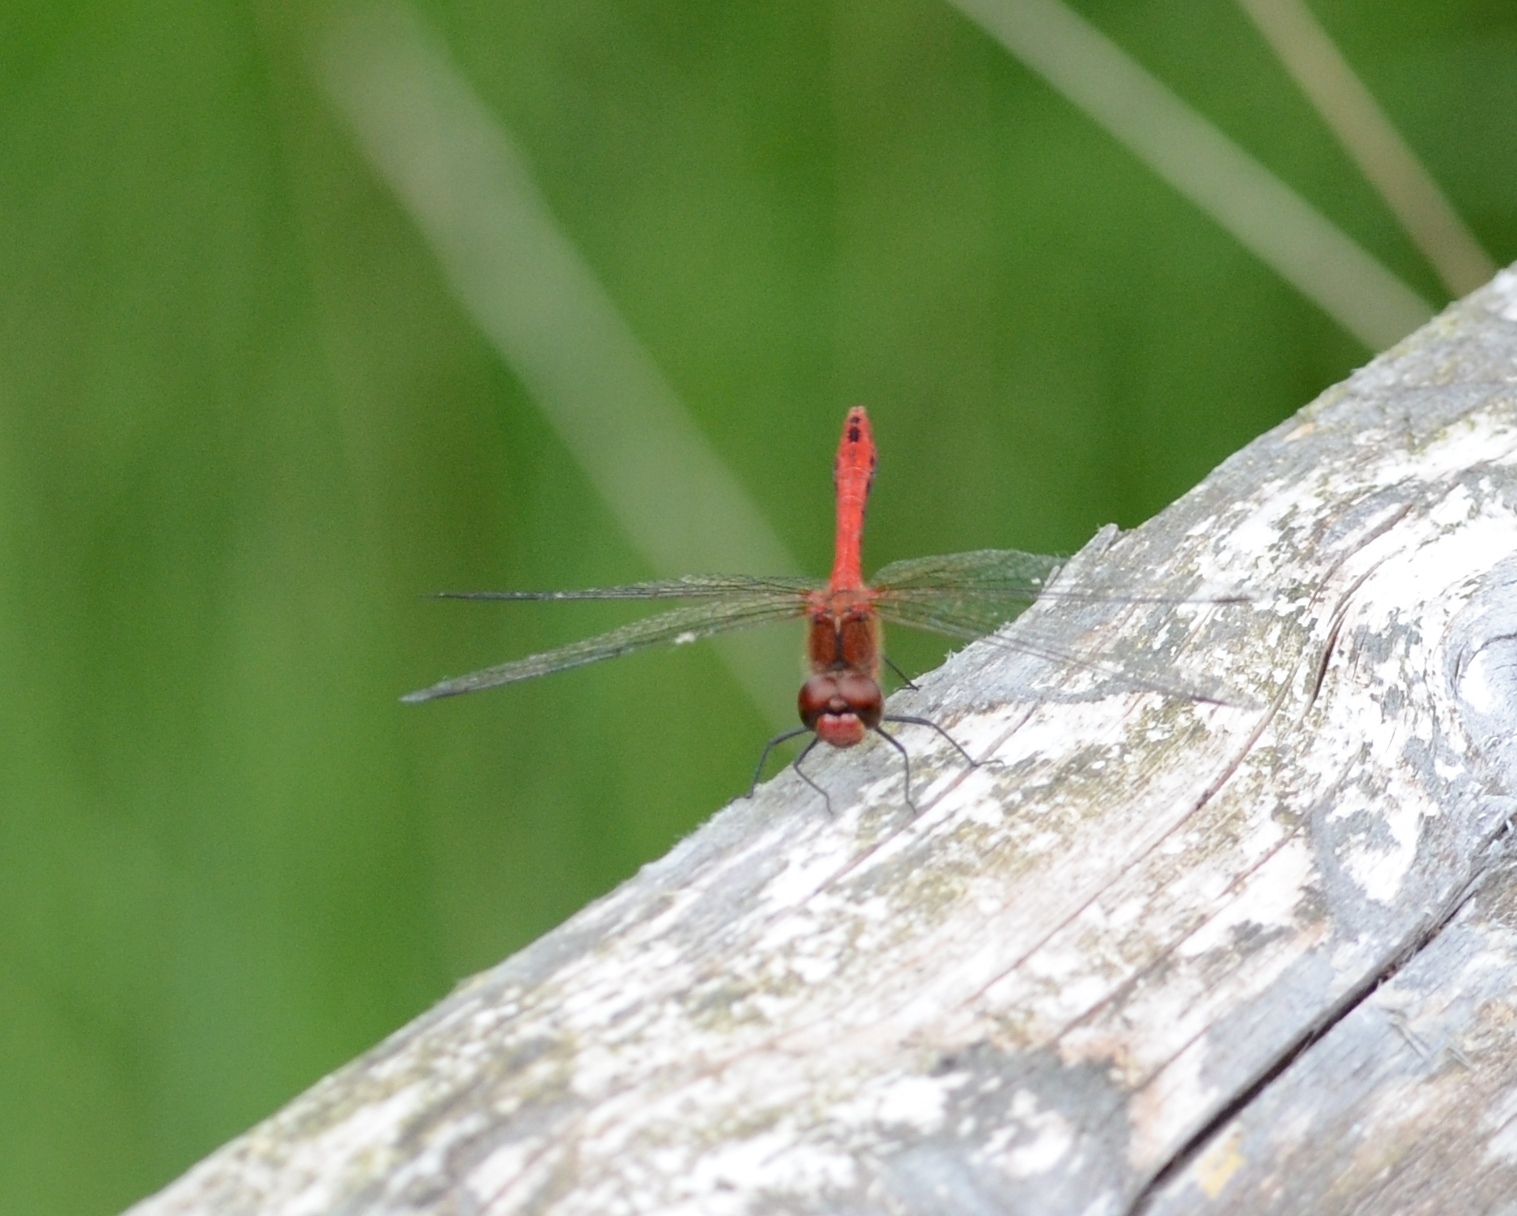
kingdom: Animalia
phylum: Arthropoda
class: Insecta
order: Odonata
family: Libellulidae
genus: Sympetrum
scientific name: Sympetrum sanguineum
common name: Ruddy darter
